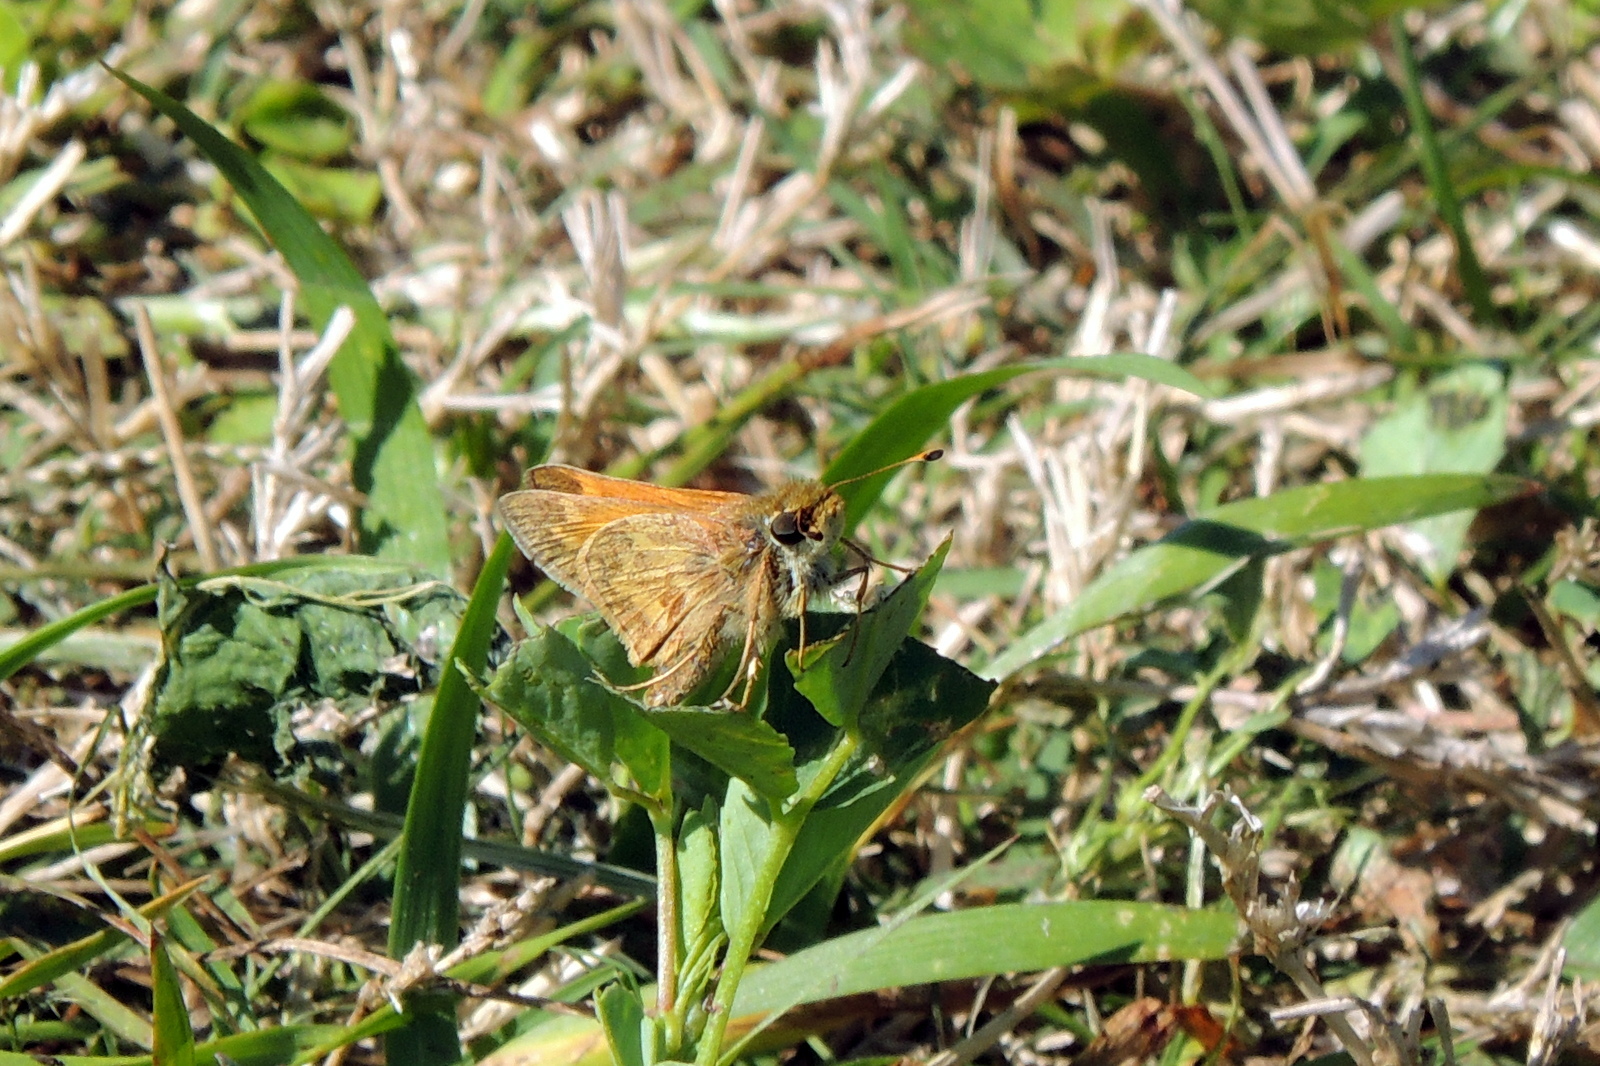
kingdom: Animalia
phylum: Arthropoda
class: Insecta
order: Lepidoptera
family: Hesperiidae
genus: Atalopedes
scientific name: Atalopedes
